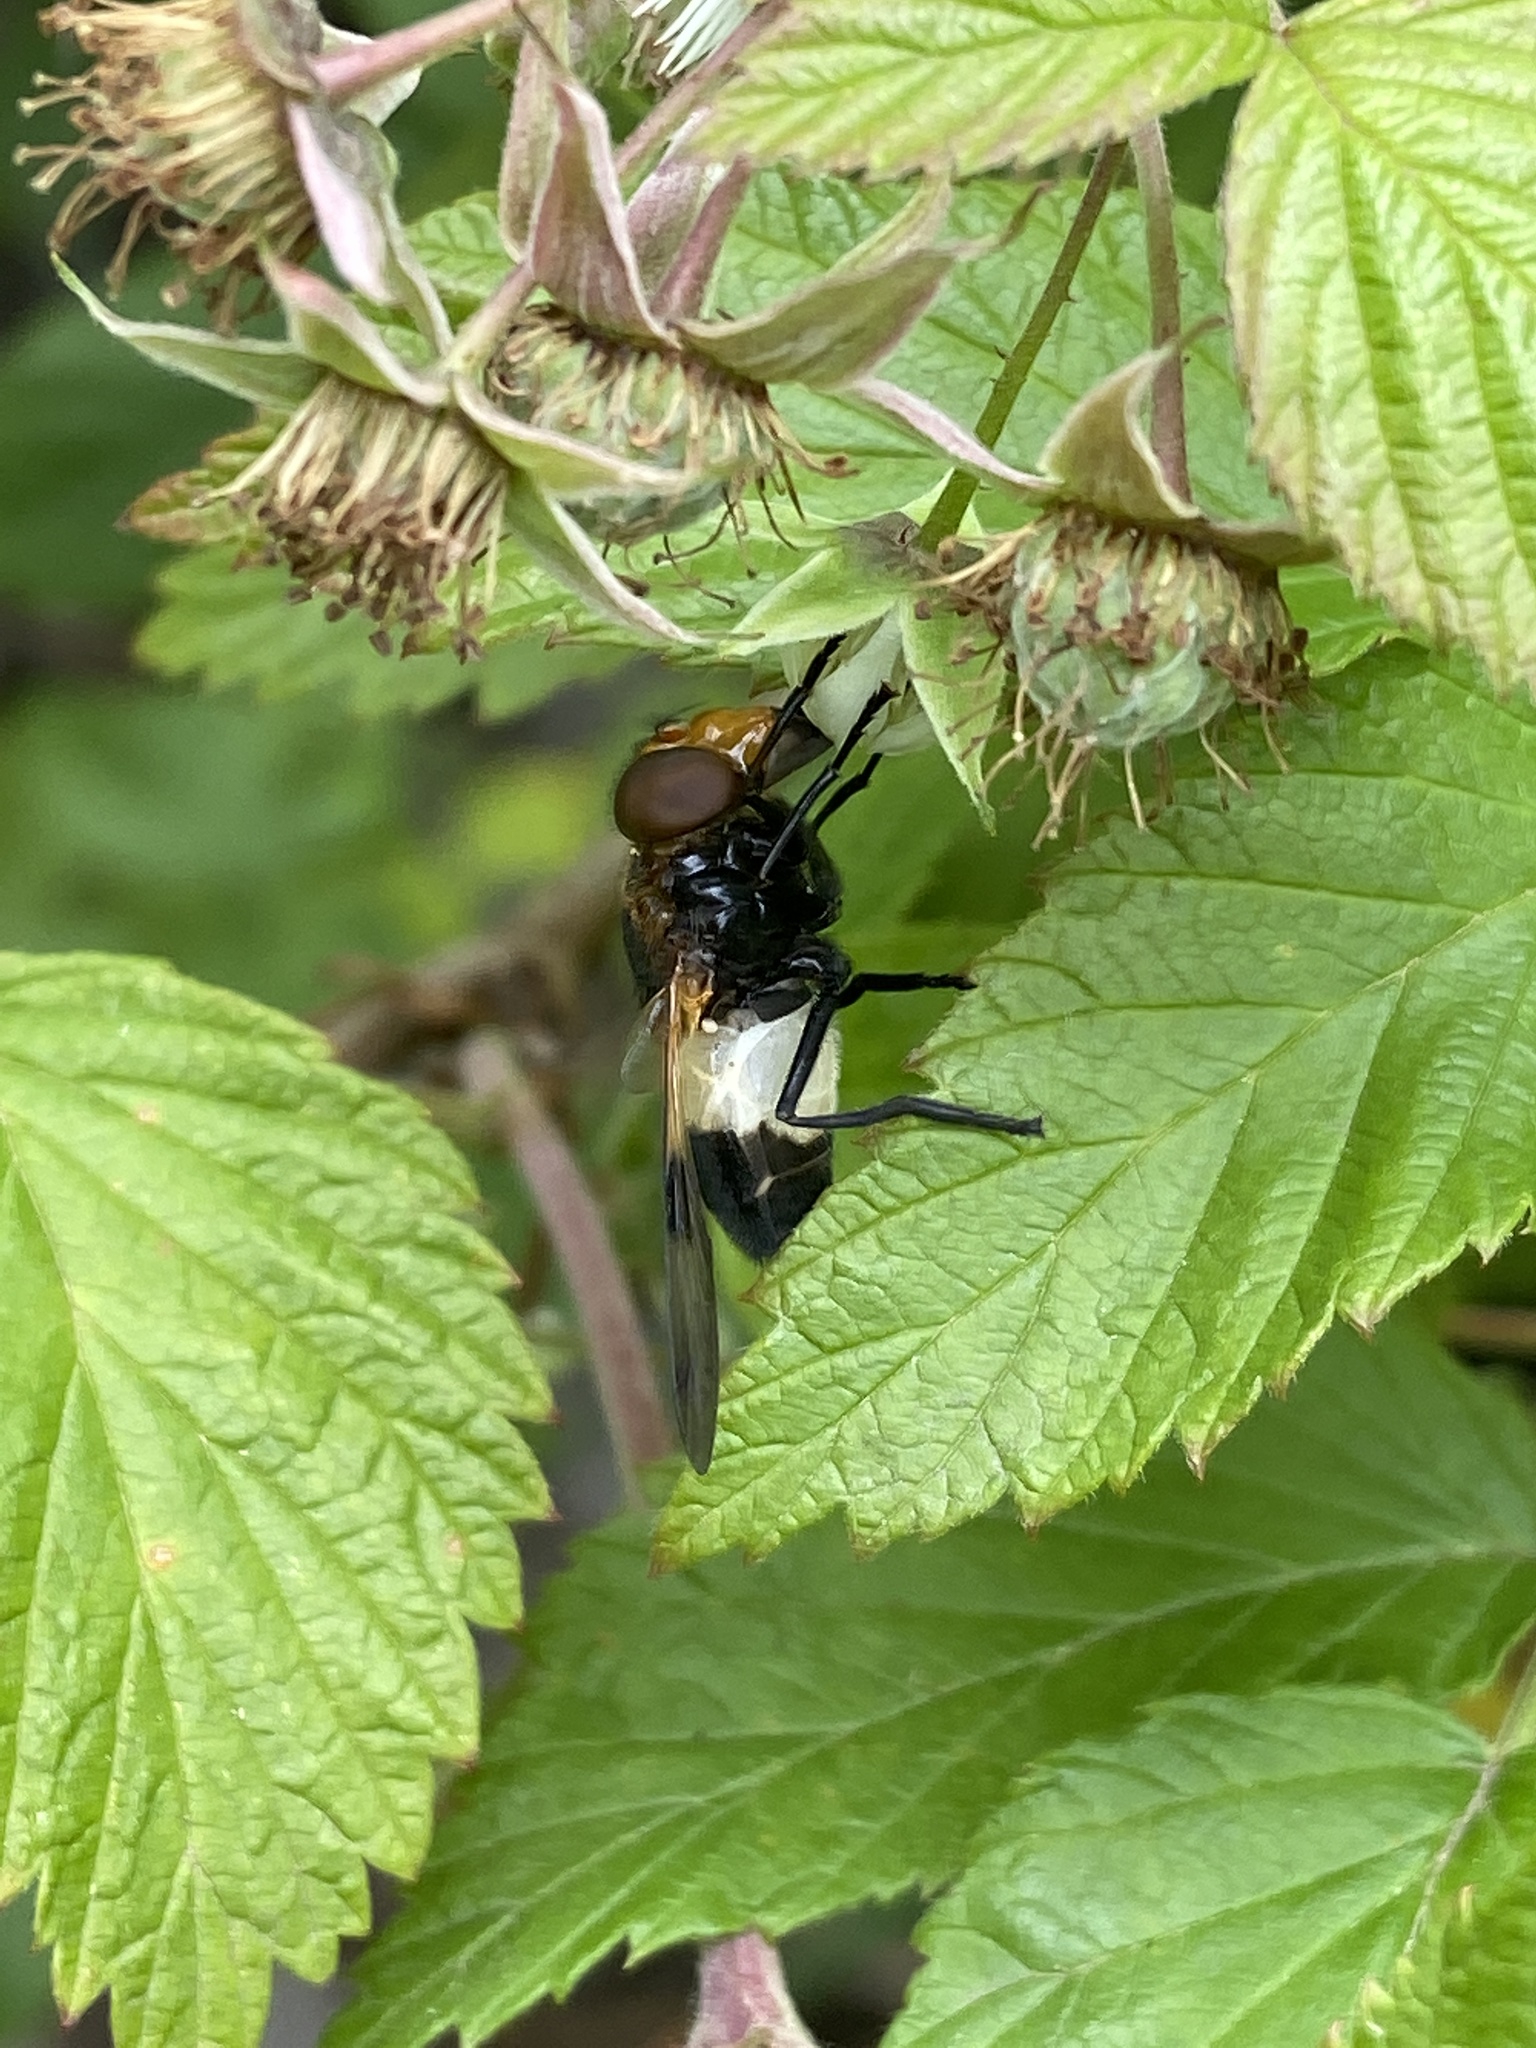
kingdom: Animalia
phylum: Arthropoda
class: Insecta
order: Diptera
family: Syrphidae
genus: Volucella
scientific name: Volucella pellucens
